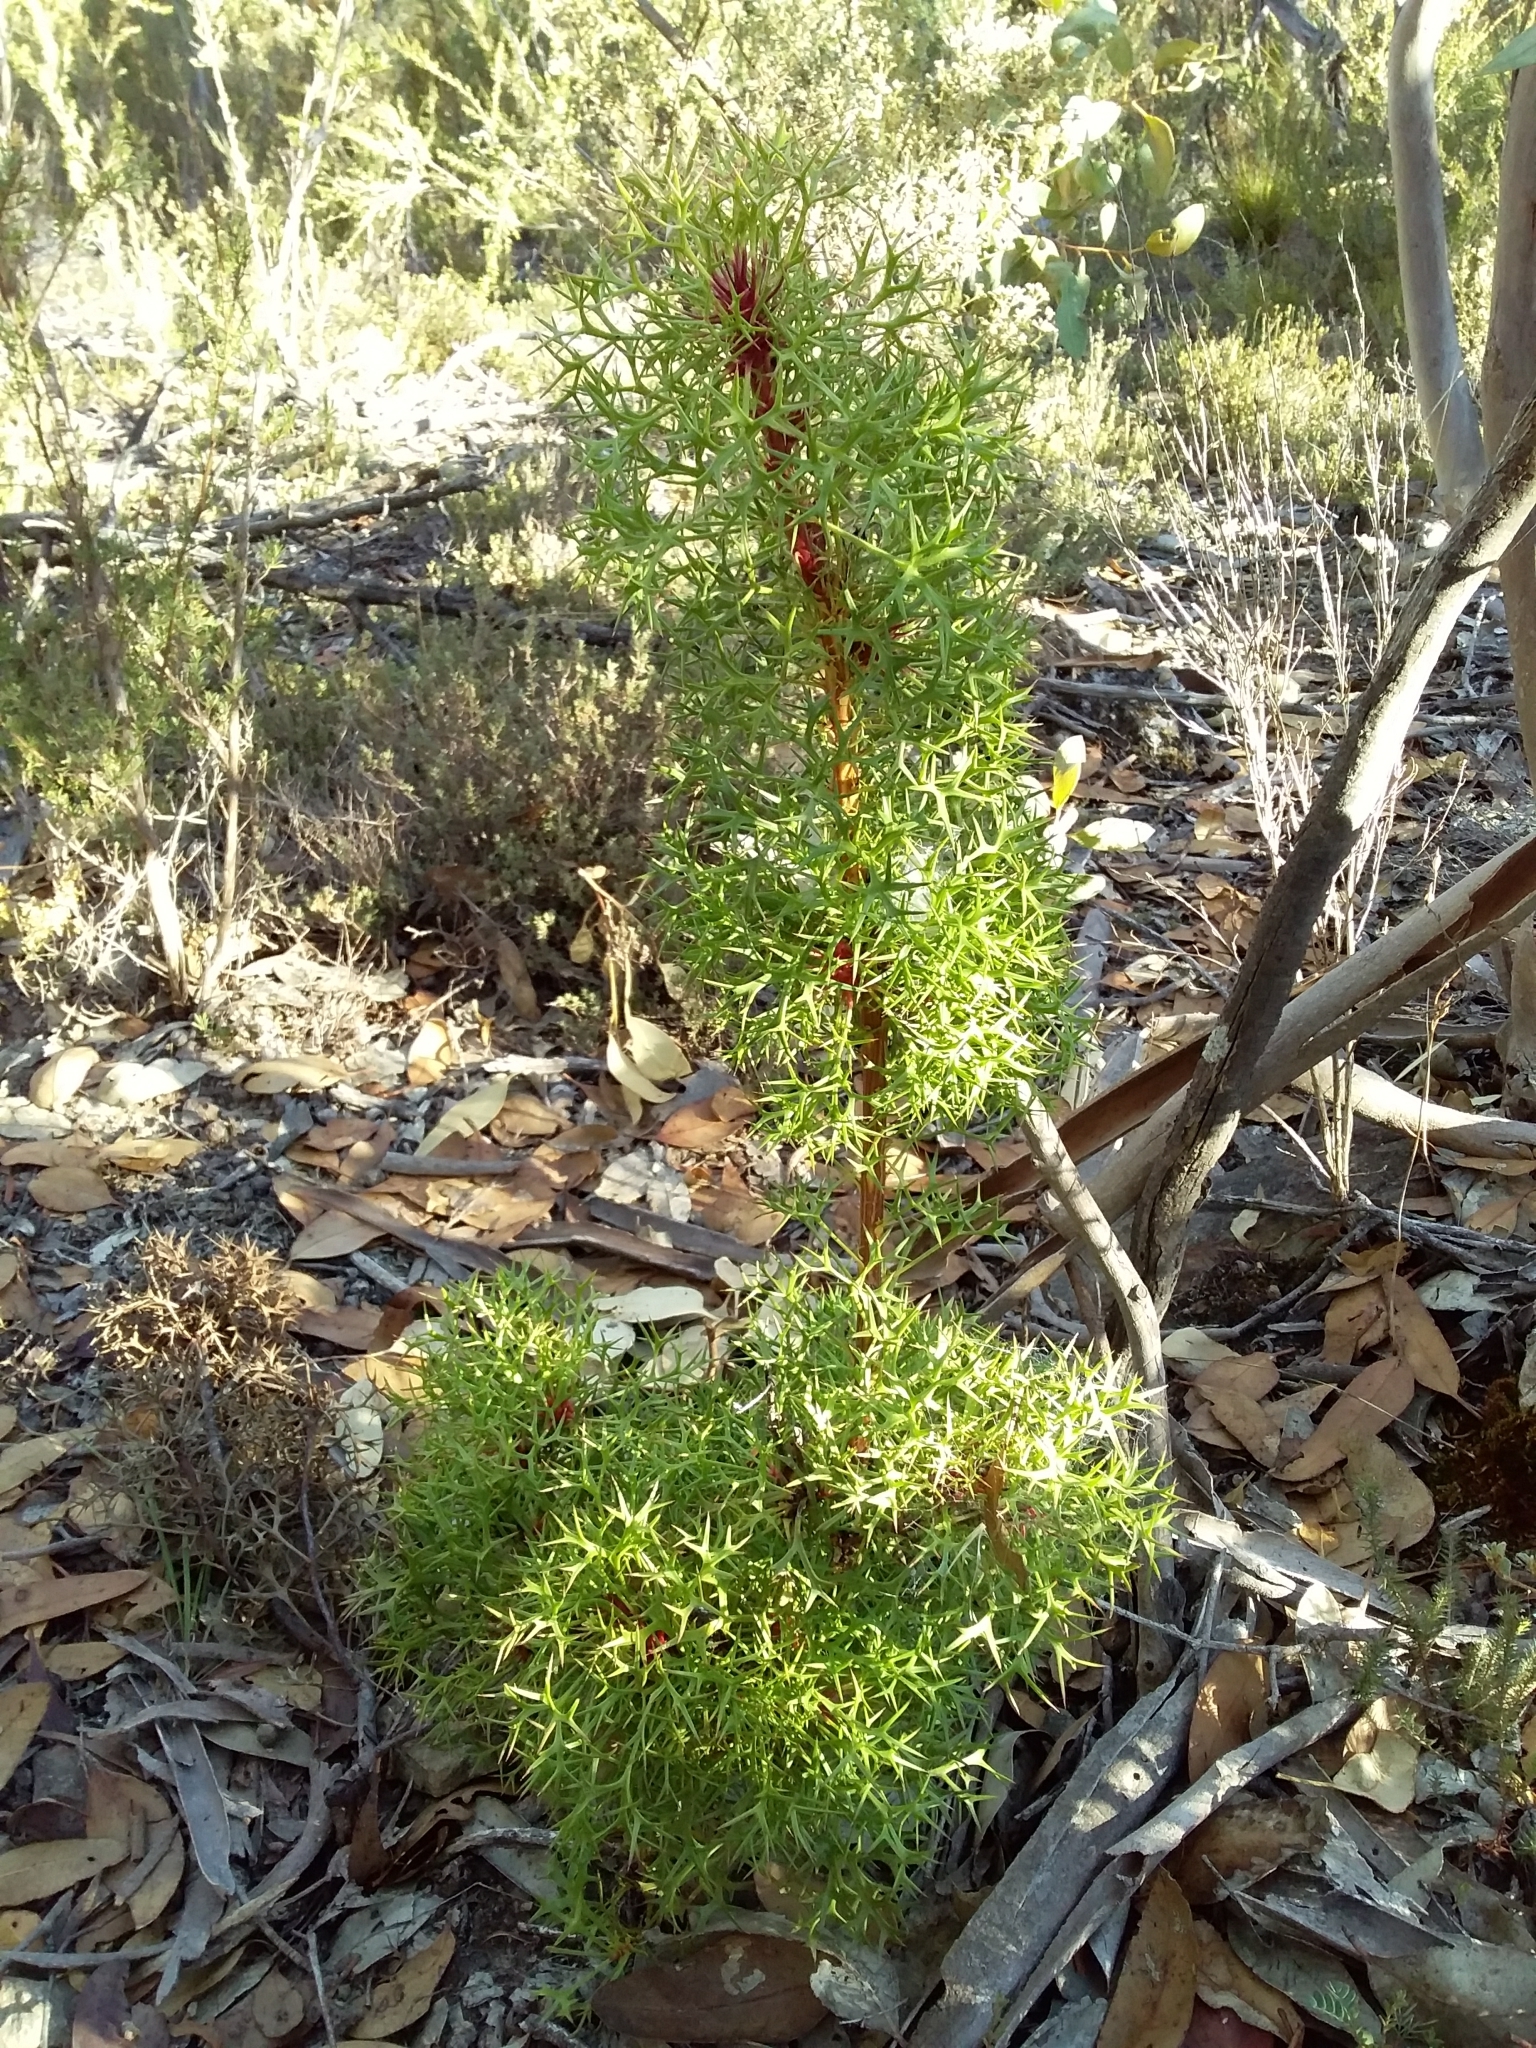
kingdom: Plantae
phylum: Tracheophyta
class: Magnoliopsida
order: Proteales
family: Proteaceae
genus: Isopogon
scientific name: Isopogon ceratophyllus
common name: Horny cone-bush
